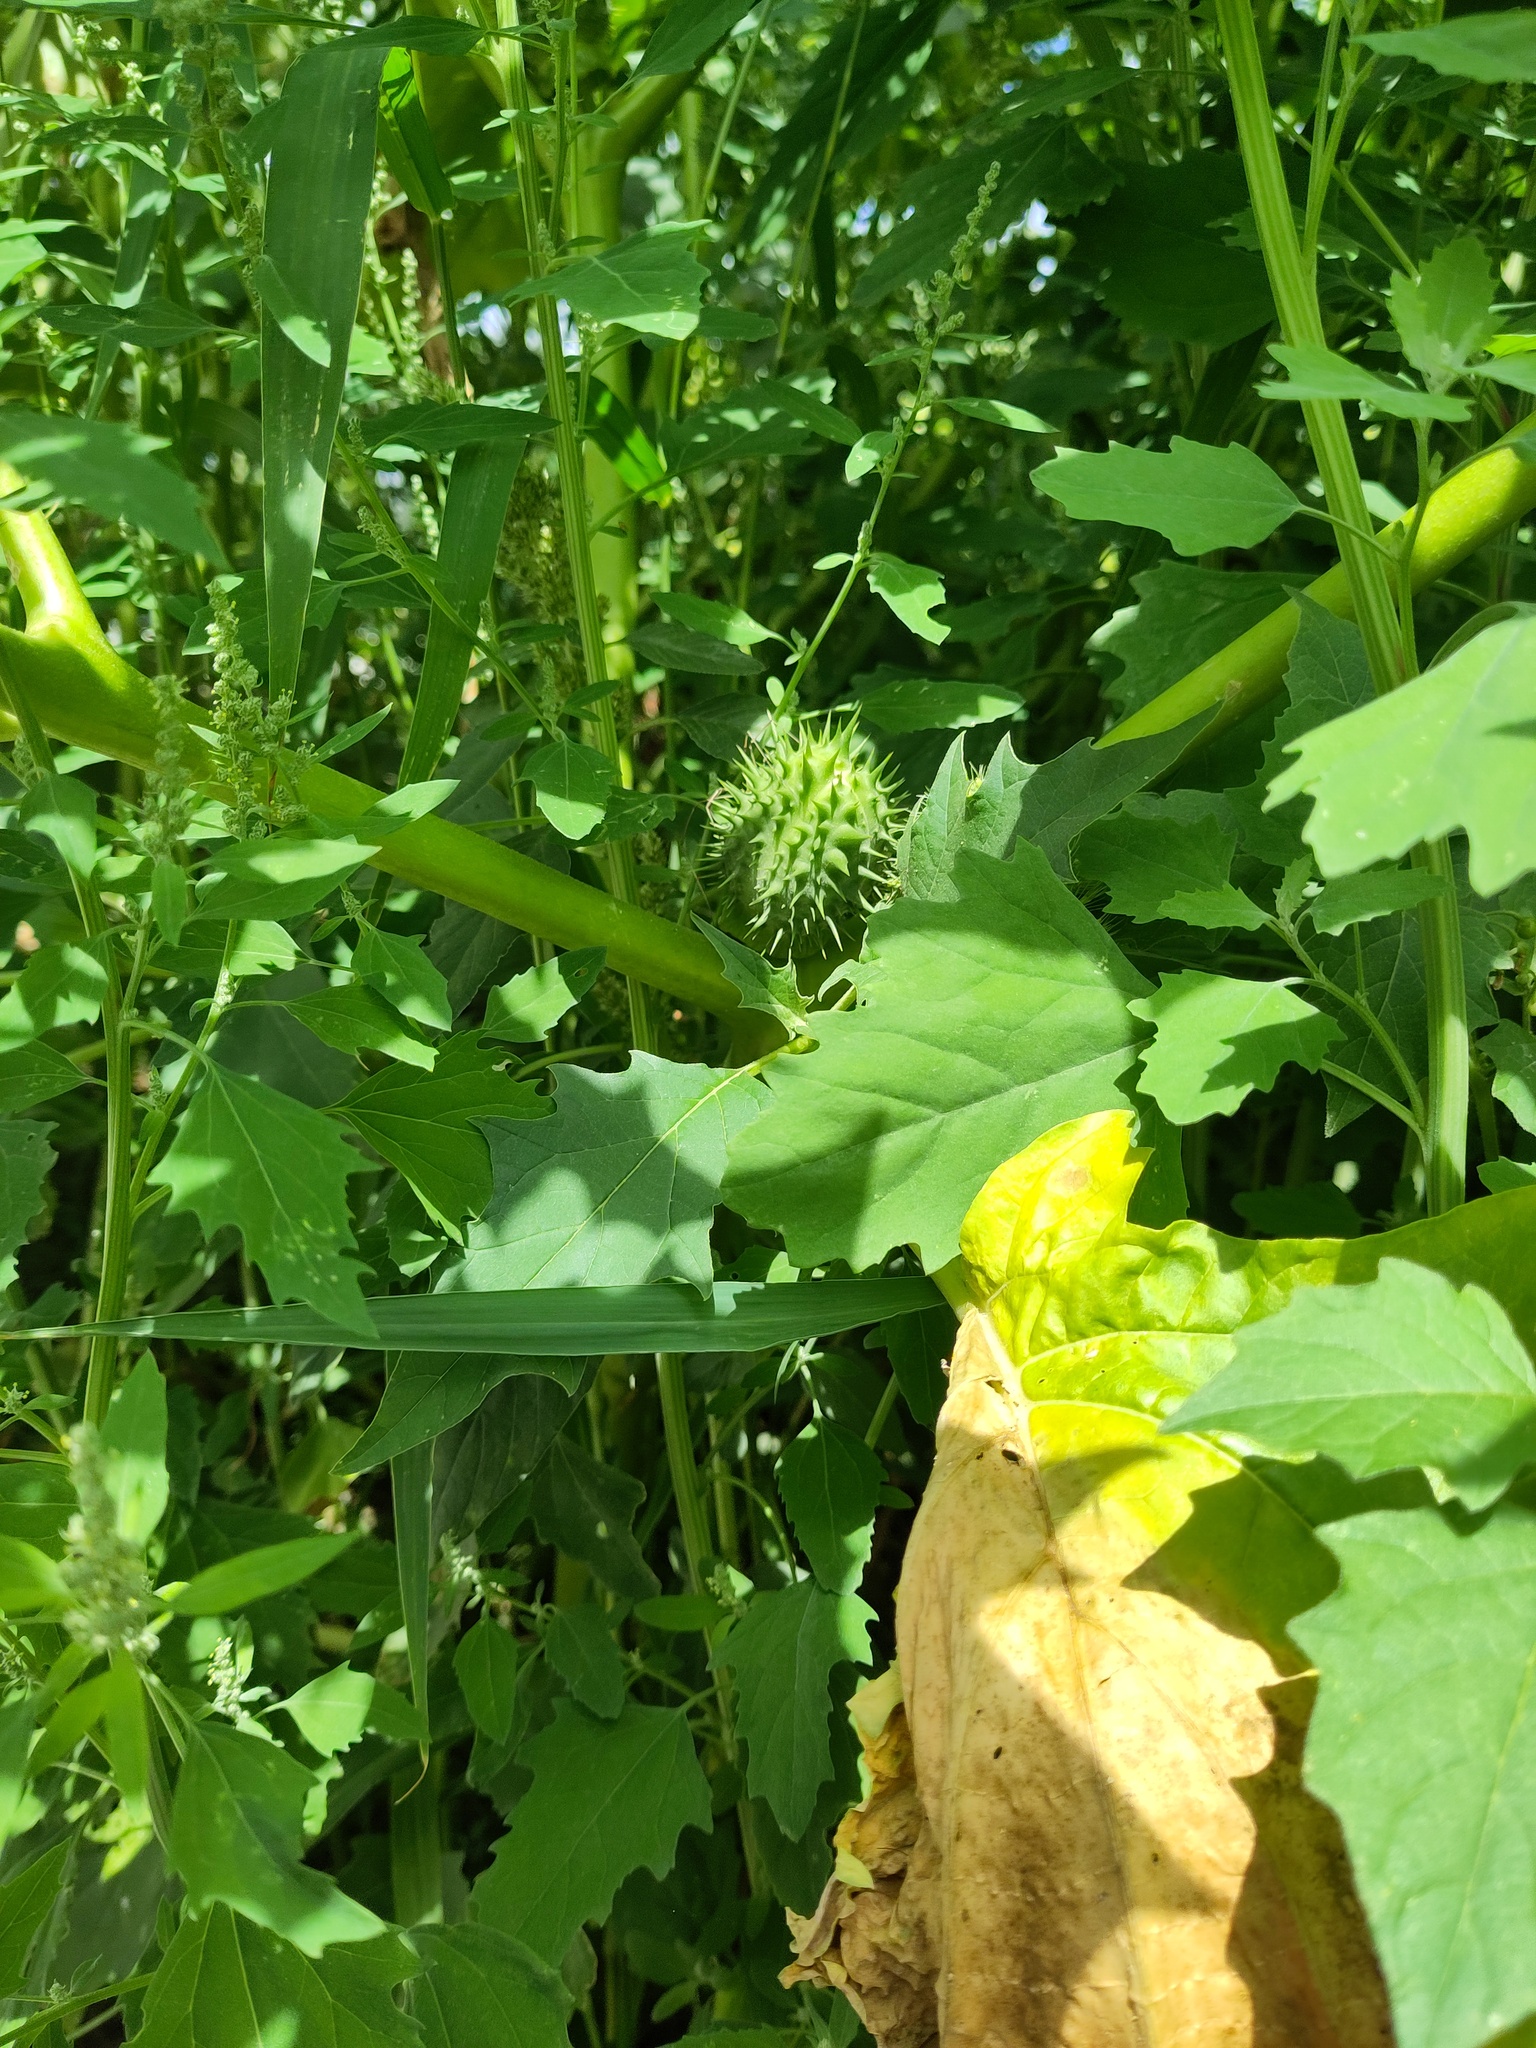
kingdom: Plantae
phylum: Tracheophyta
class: Magnoliopsida
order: Solanales
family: Solanaceae
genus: Datura
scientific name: Datura stramonium
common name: Thorn-apple
